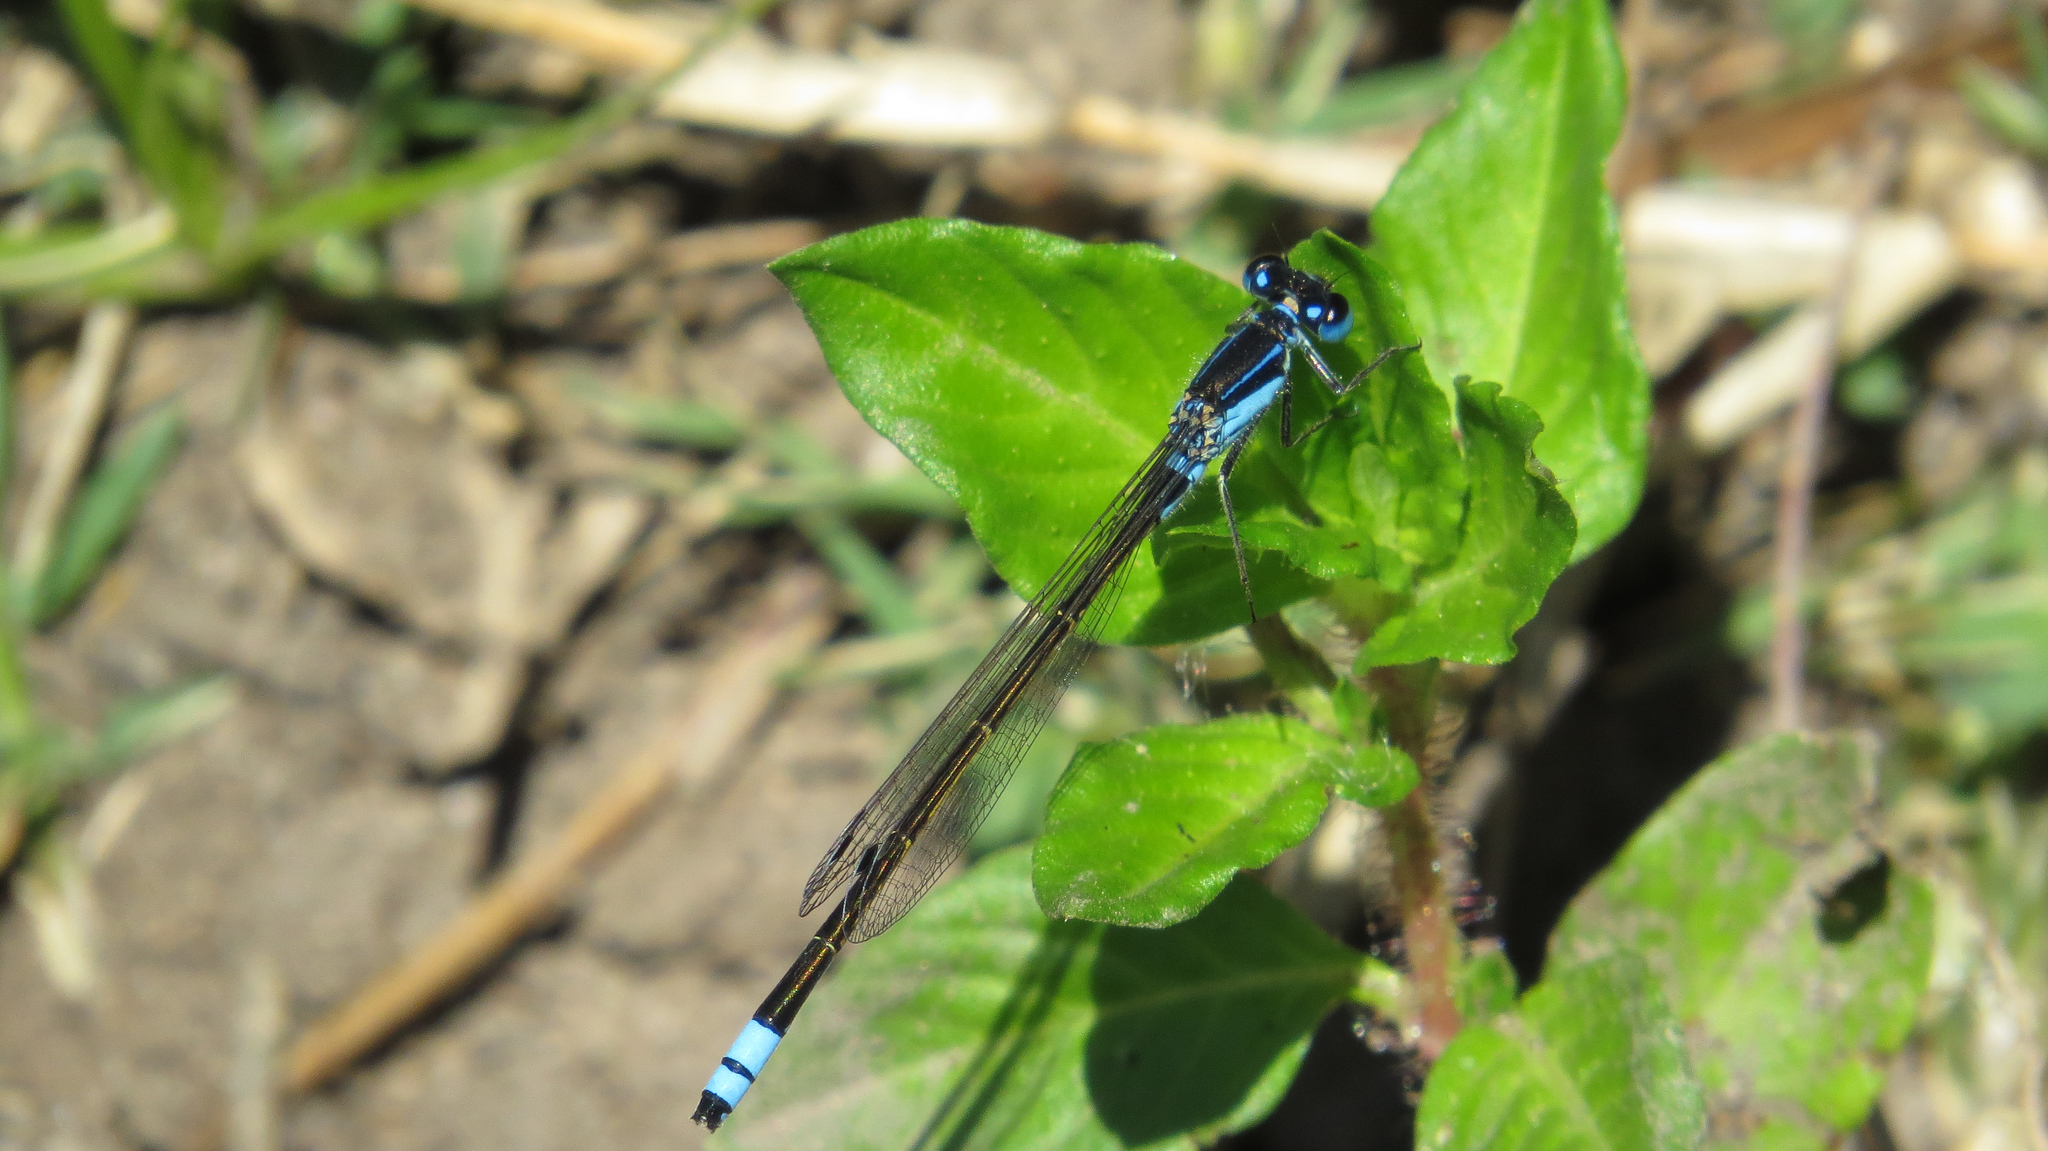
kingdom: Animalia
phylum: Arthropoda
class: Insecta
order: Odonata
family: Coenagrionidae
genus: Ischnura
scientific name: Ischnura heterosticta
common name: Common bluetail
